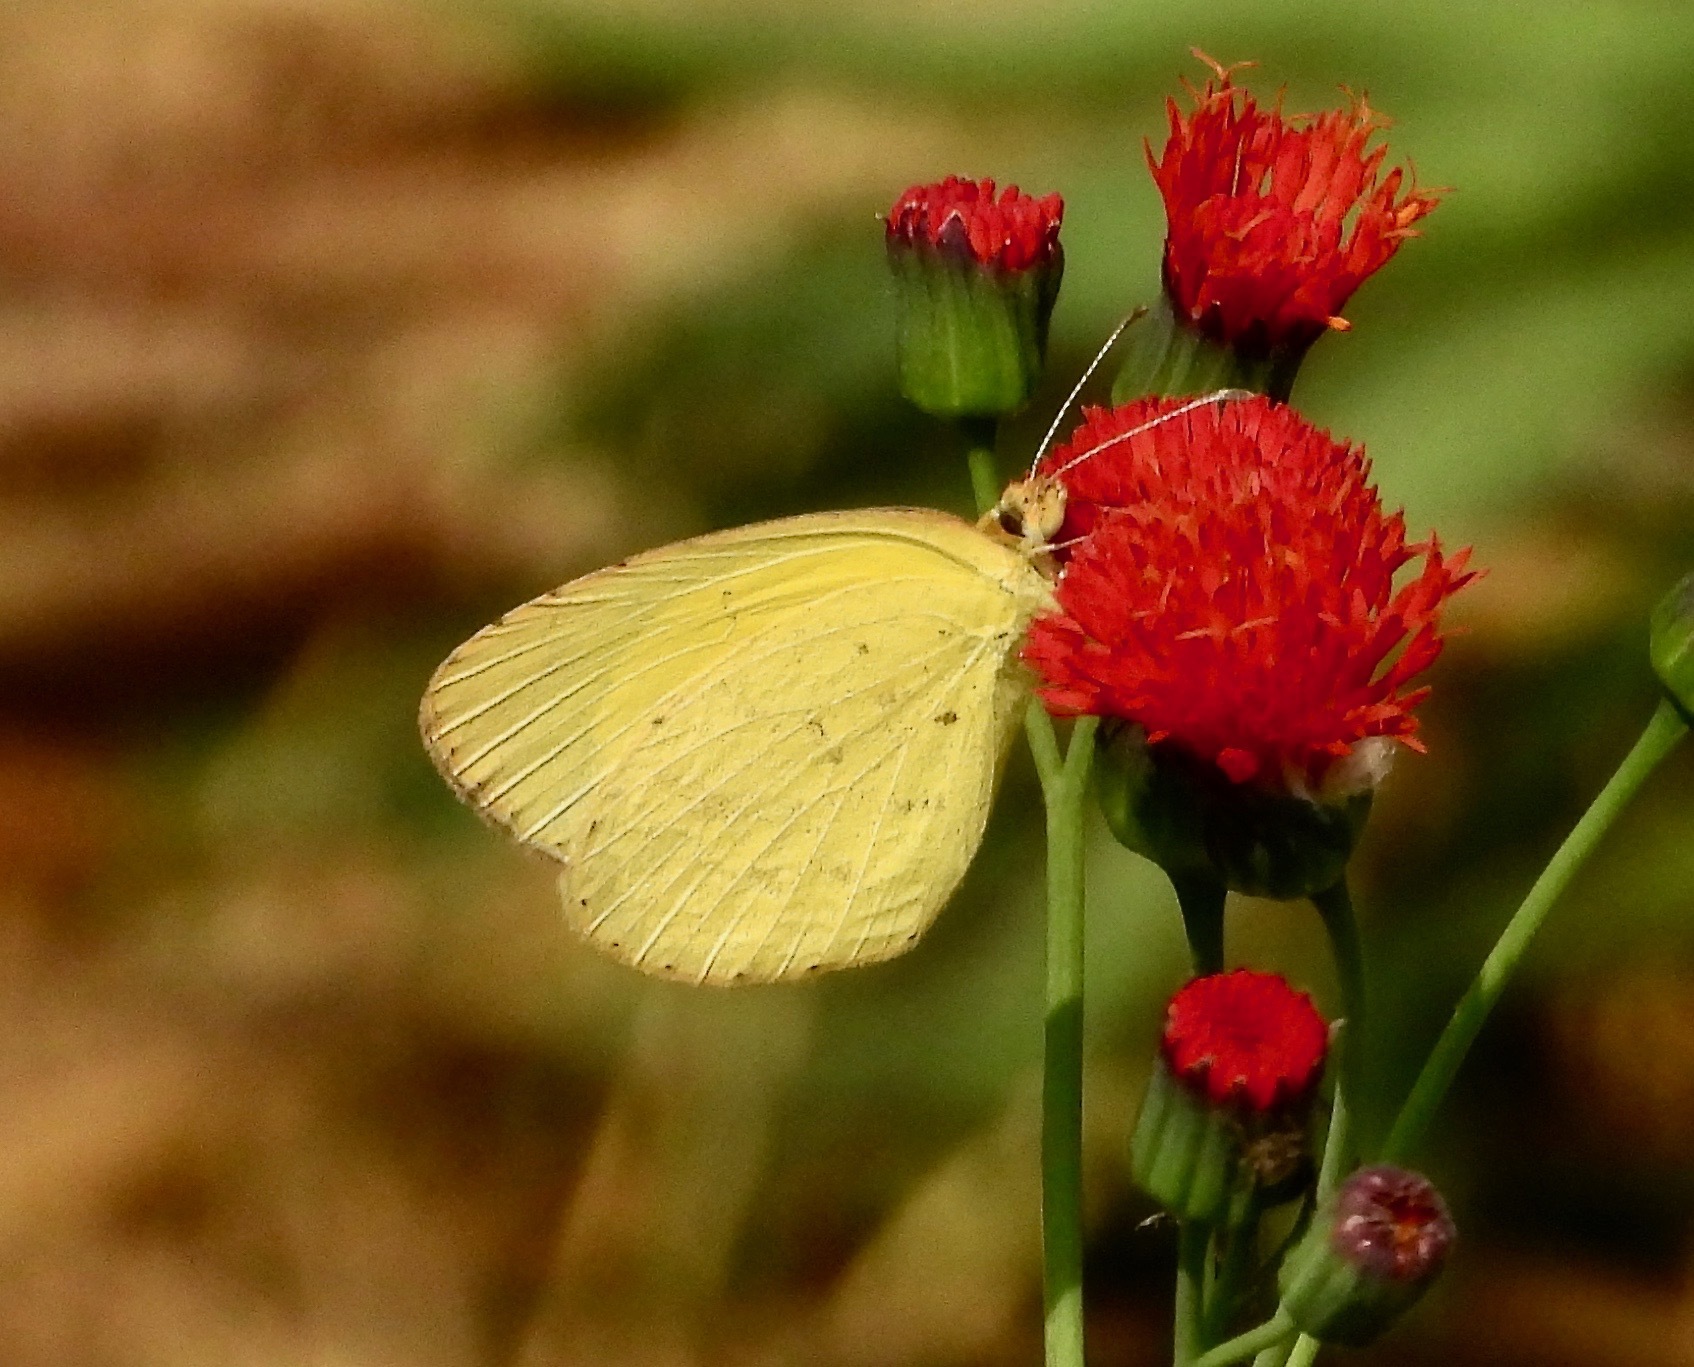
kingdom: Animalia
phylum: Arthropoda
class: Insecta
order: Lepidoptera
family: Pieridae
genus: Eurema
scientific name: Eurema brigitta
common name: Small grass yellow
